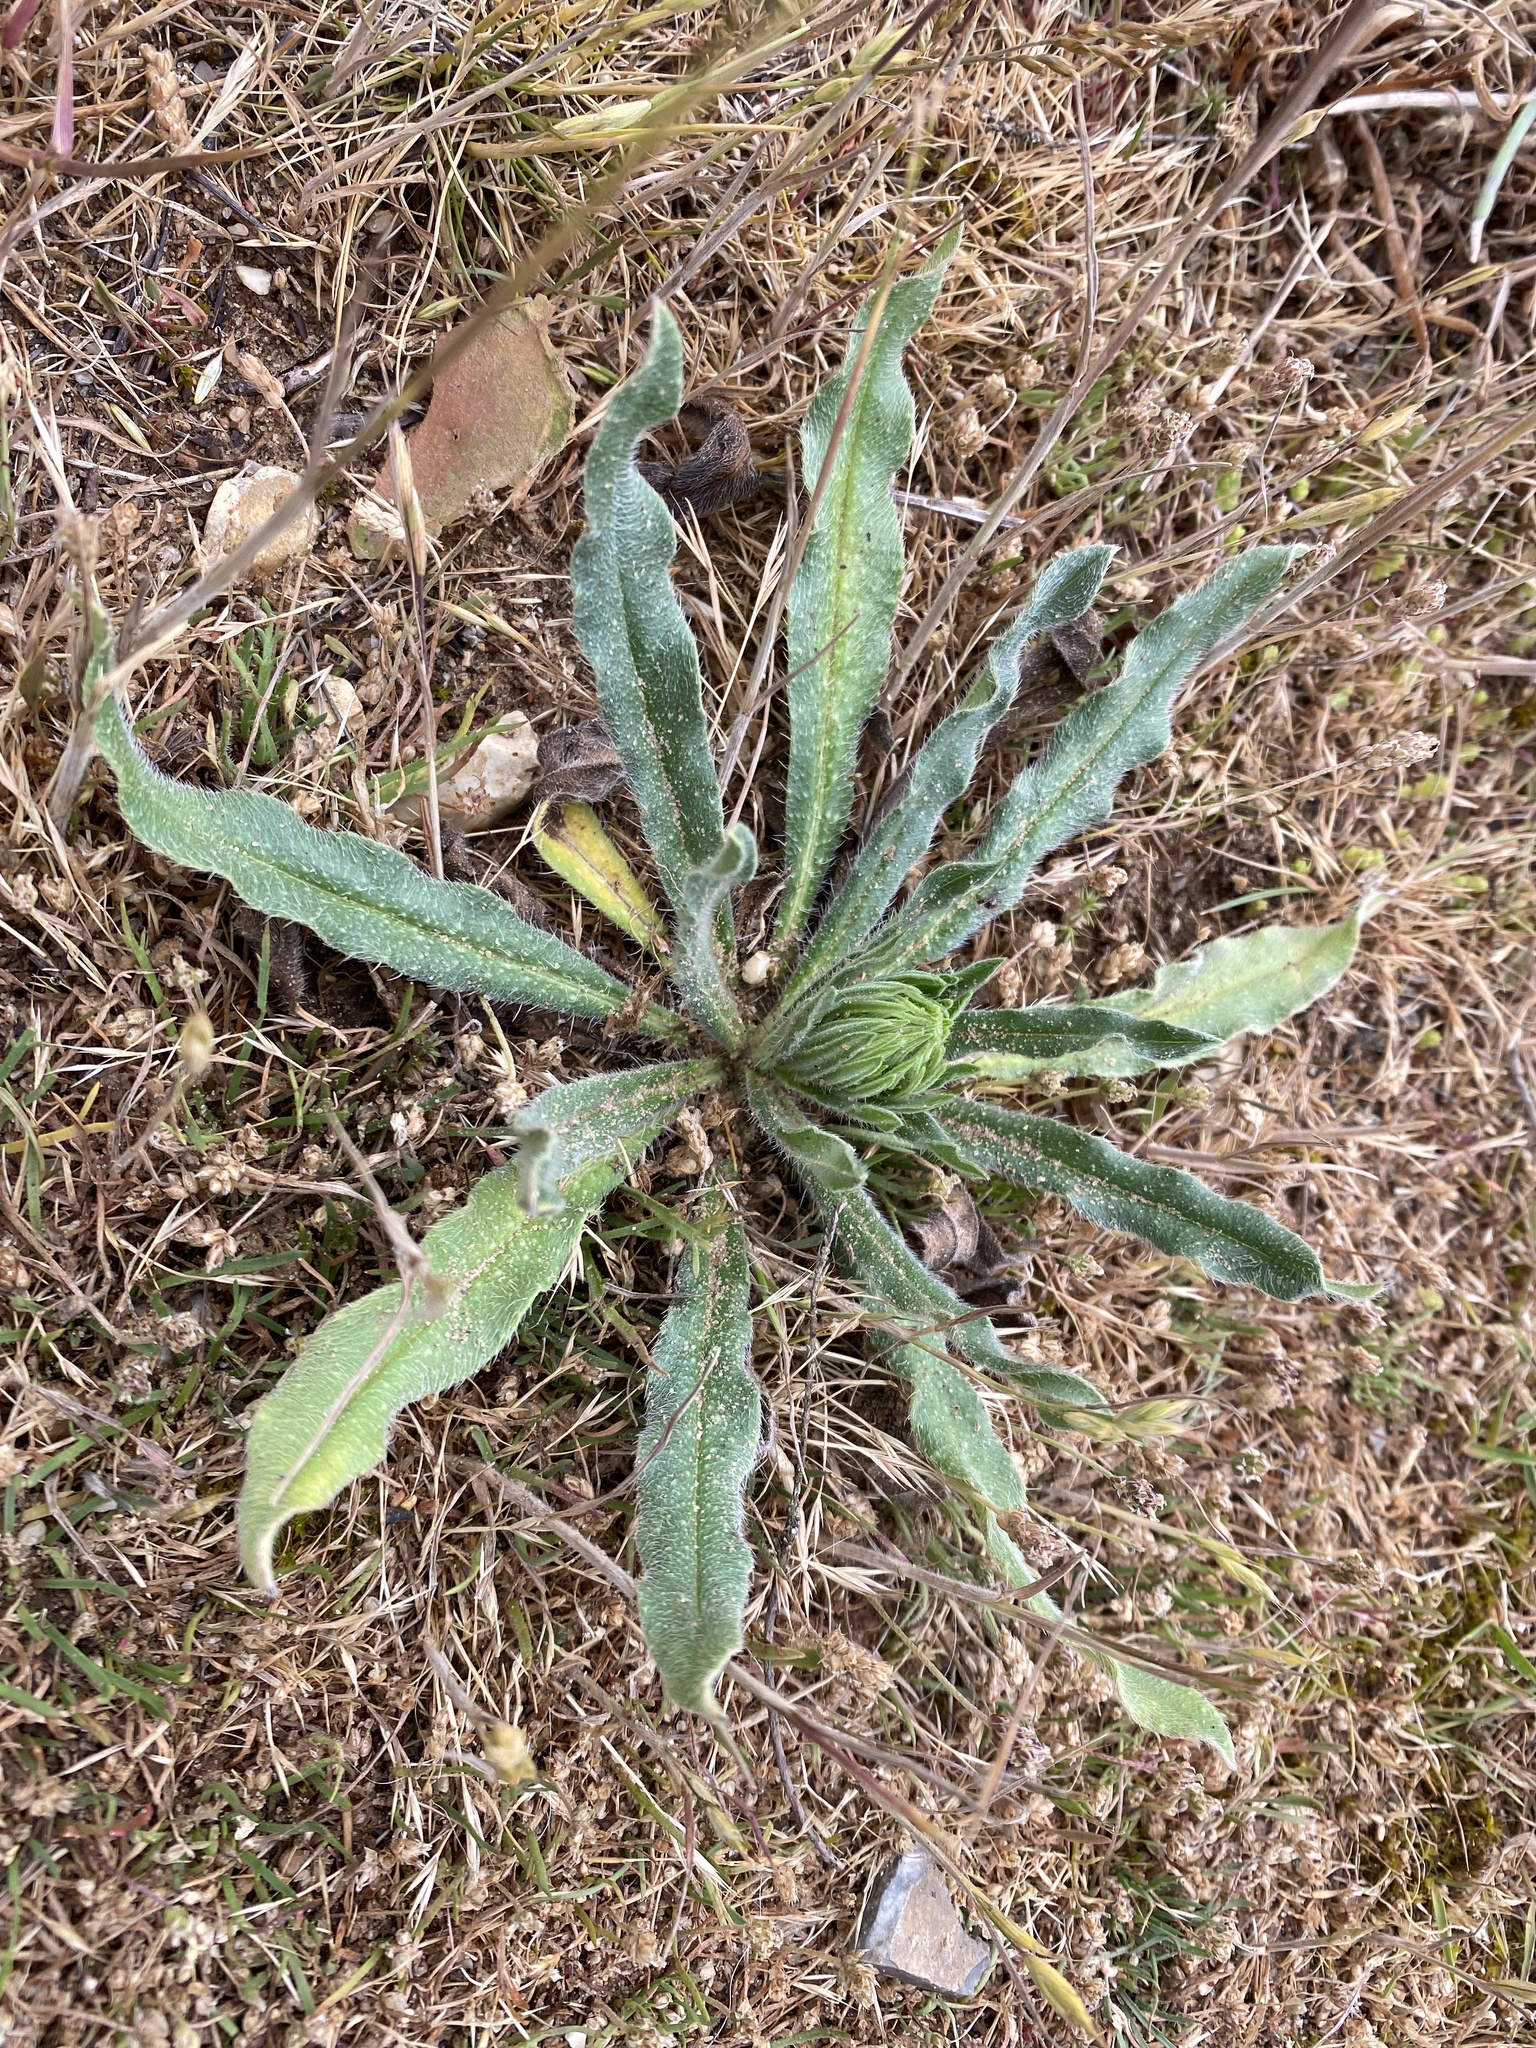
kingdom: Plantae
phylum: Tracheophyta
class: Magnoliopsida
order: Boraginales
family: Boraginaceae
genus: Echium
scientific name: Echium vulgare
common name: Common viper's bugloss
